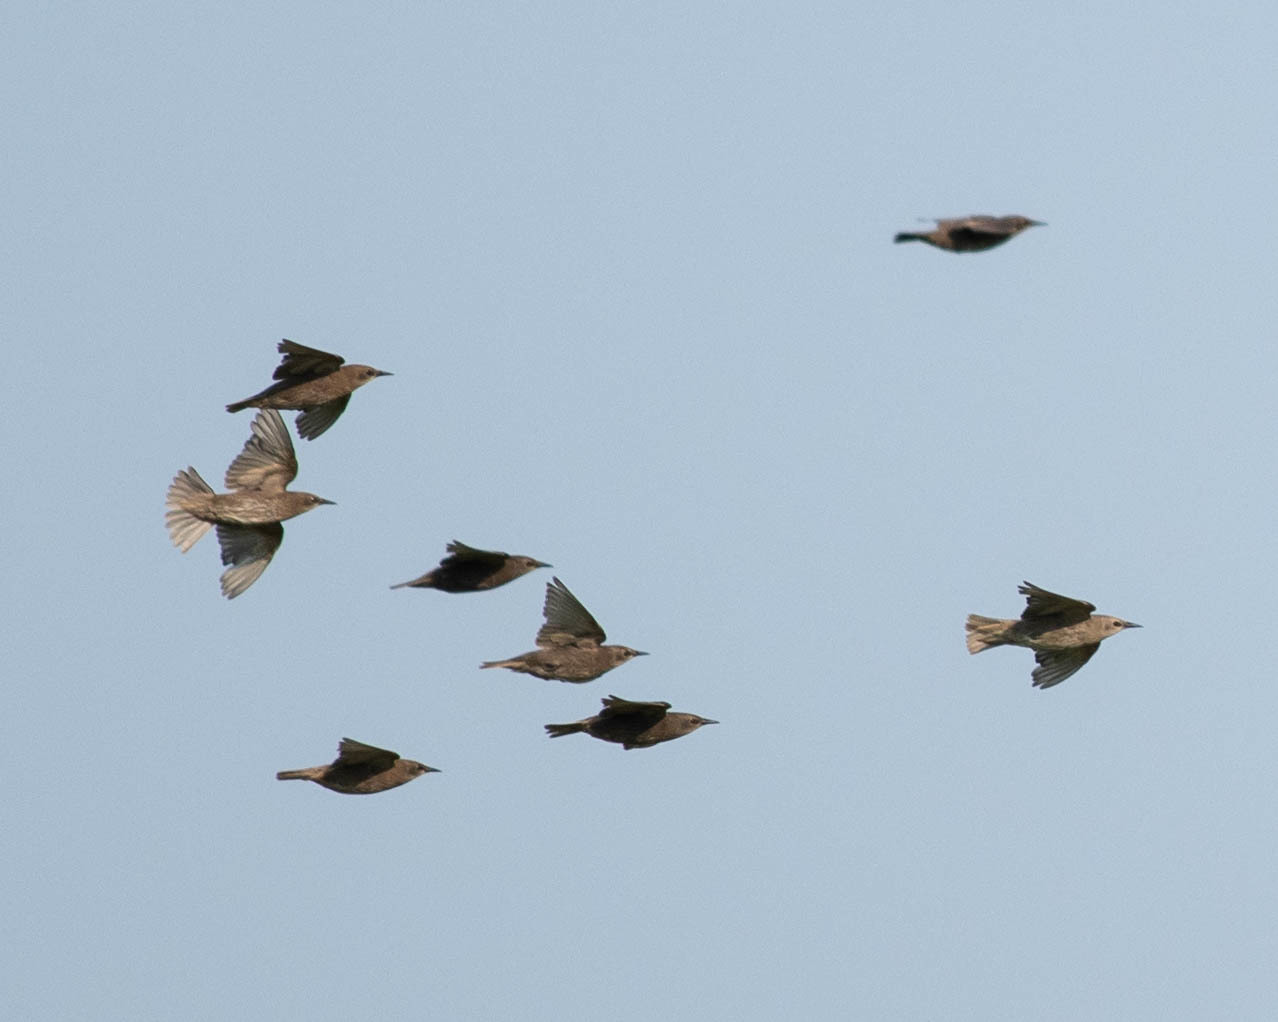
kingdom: Animalia
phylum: Chordata
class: Aves
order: Passeriformes
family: Sturnidae
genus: Sturnus
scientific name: Sturnus vulgaris
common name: Common starling
